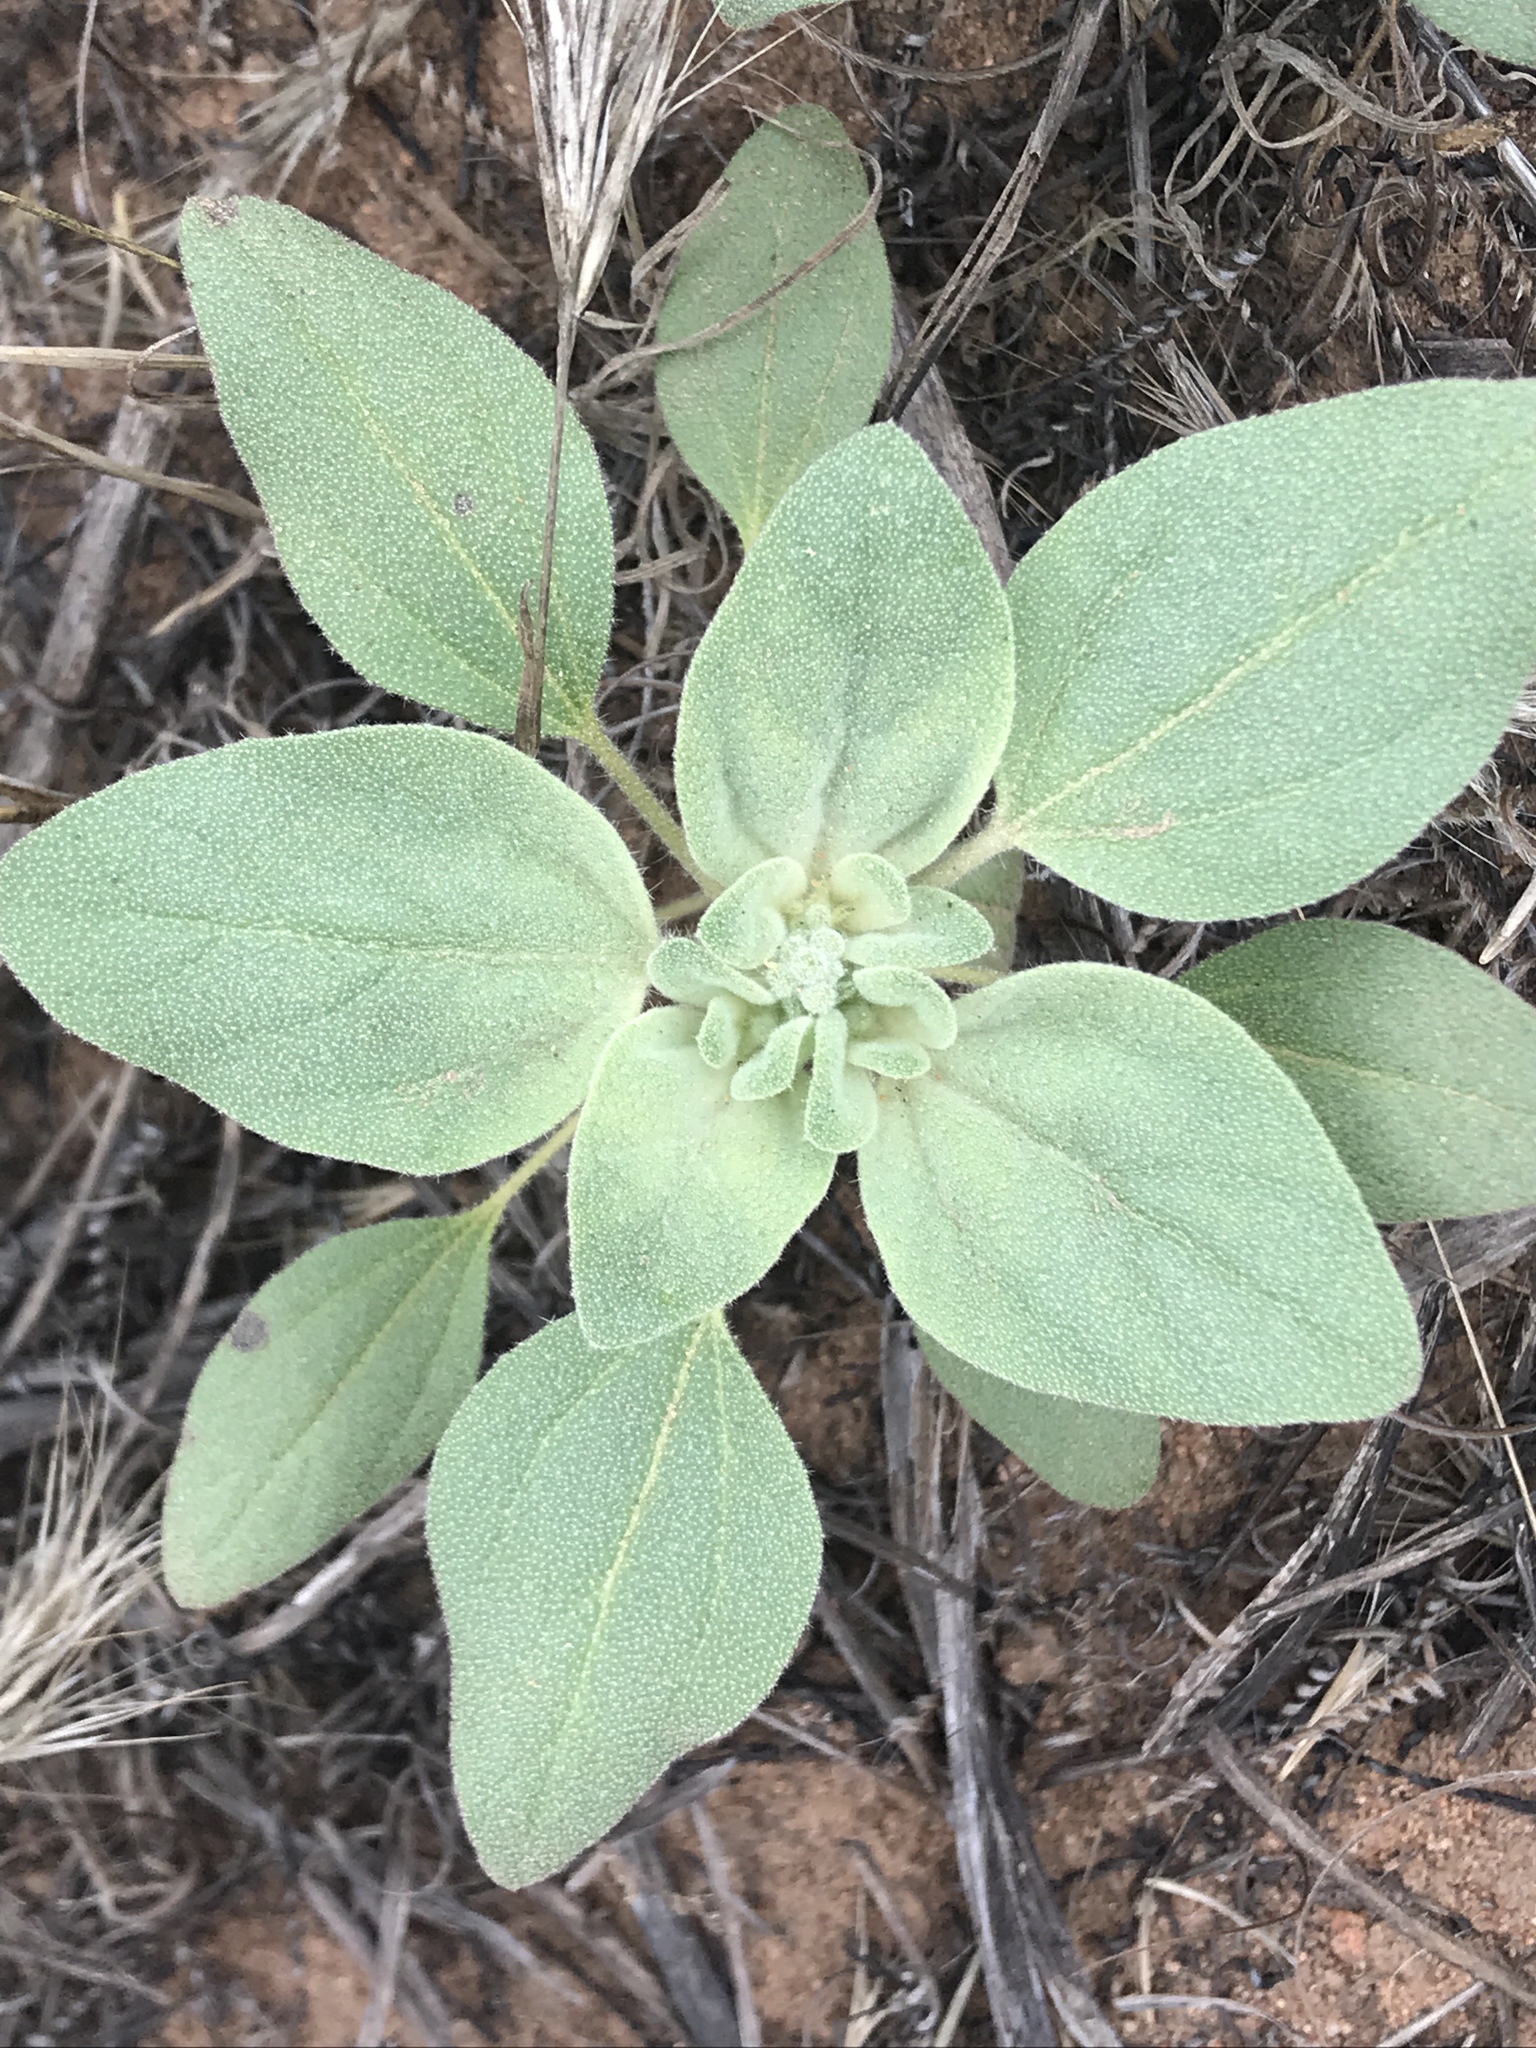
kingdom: Plantae
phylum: Tracheophyta
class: Magnoliopsida
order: Malpighiales
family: Euphorbiaceae
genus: Croton
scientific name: Croton setiger
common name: Dove weed
